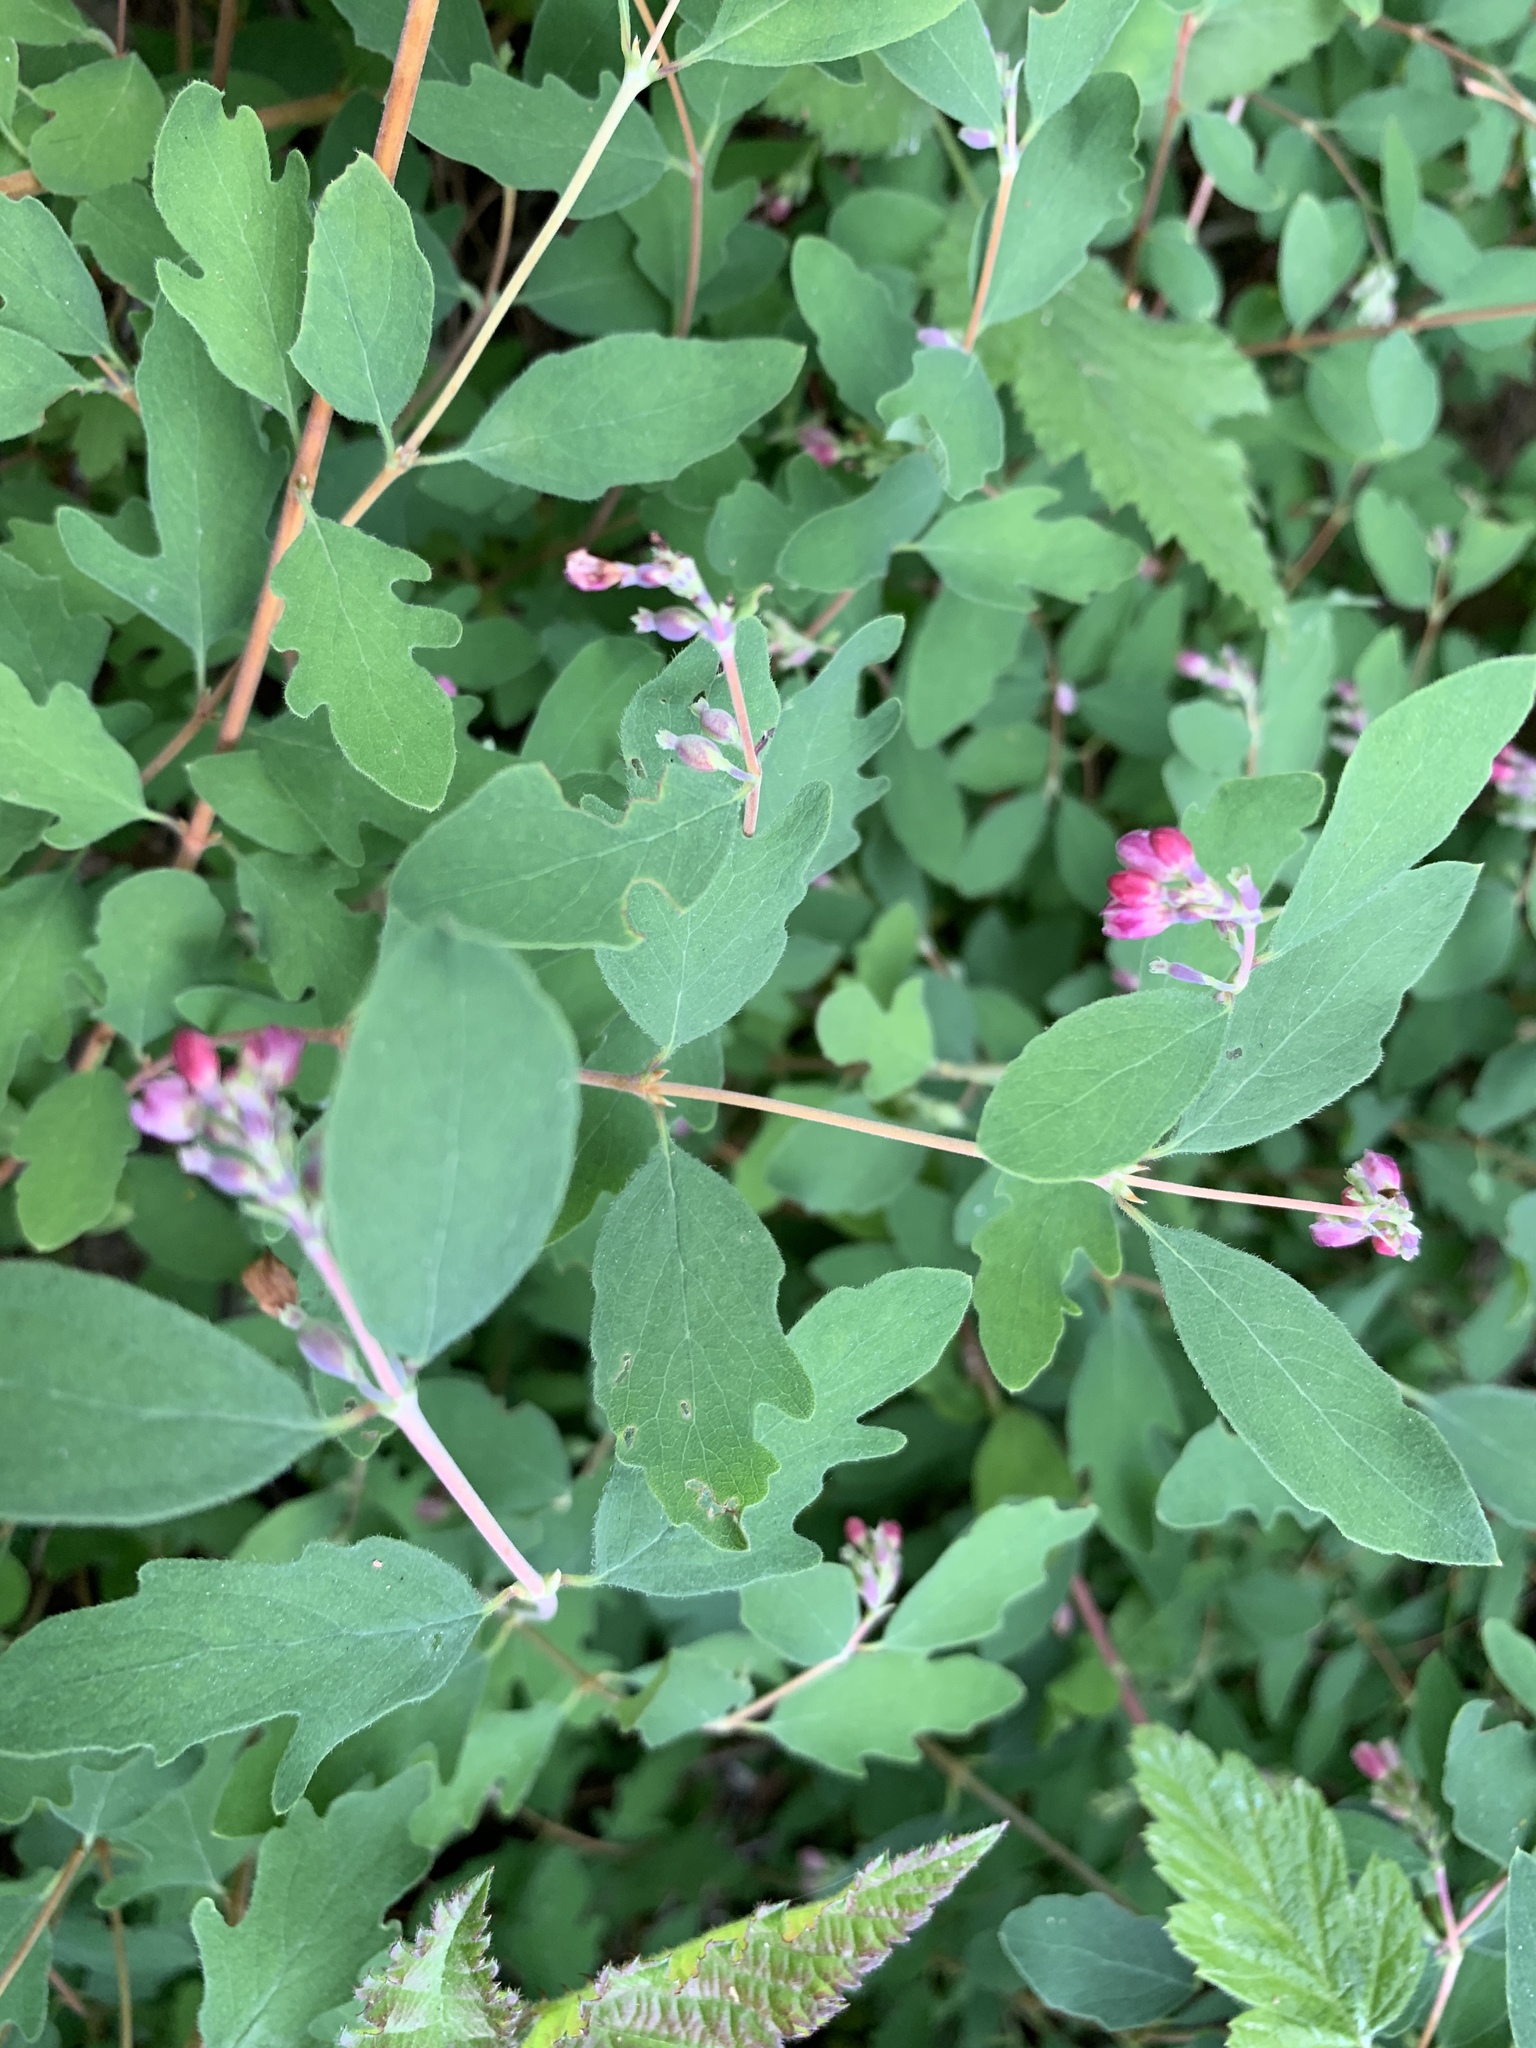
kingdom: Plantae
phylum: Tracheophyta
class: Magnoliopsida
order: Dipsacales
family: Caprifoliaceae
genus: Symphoricarpos
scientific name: Symphoricarpos albus
